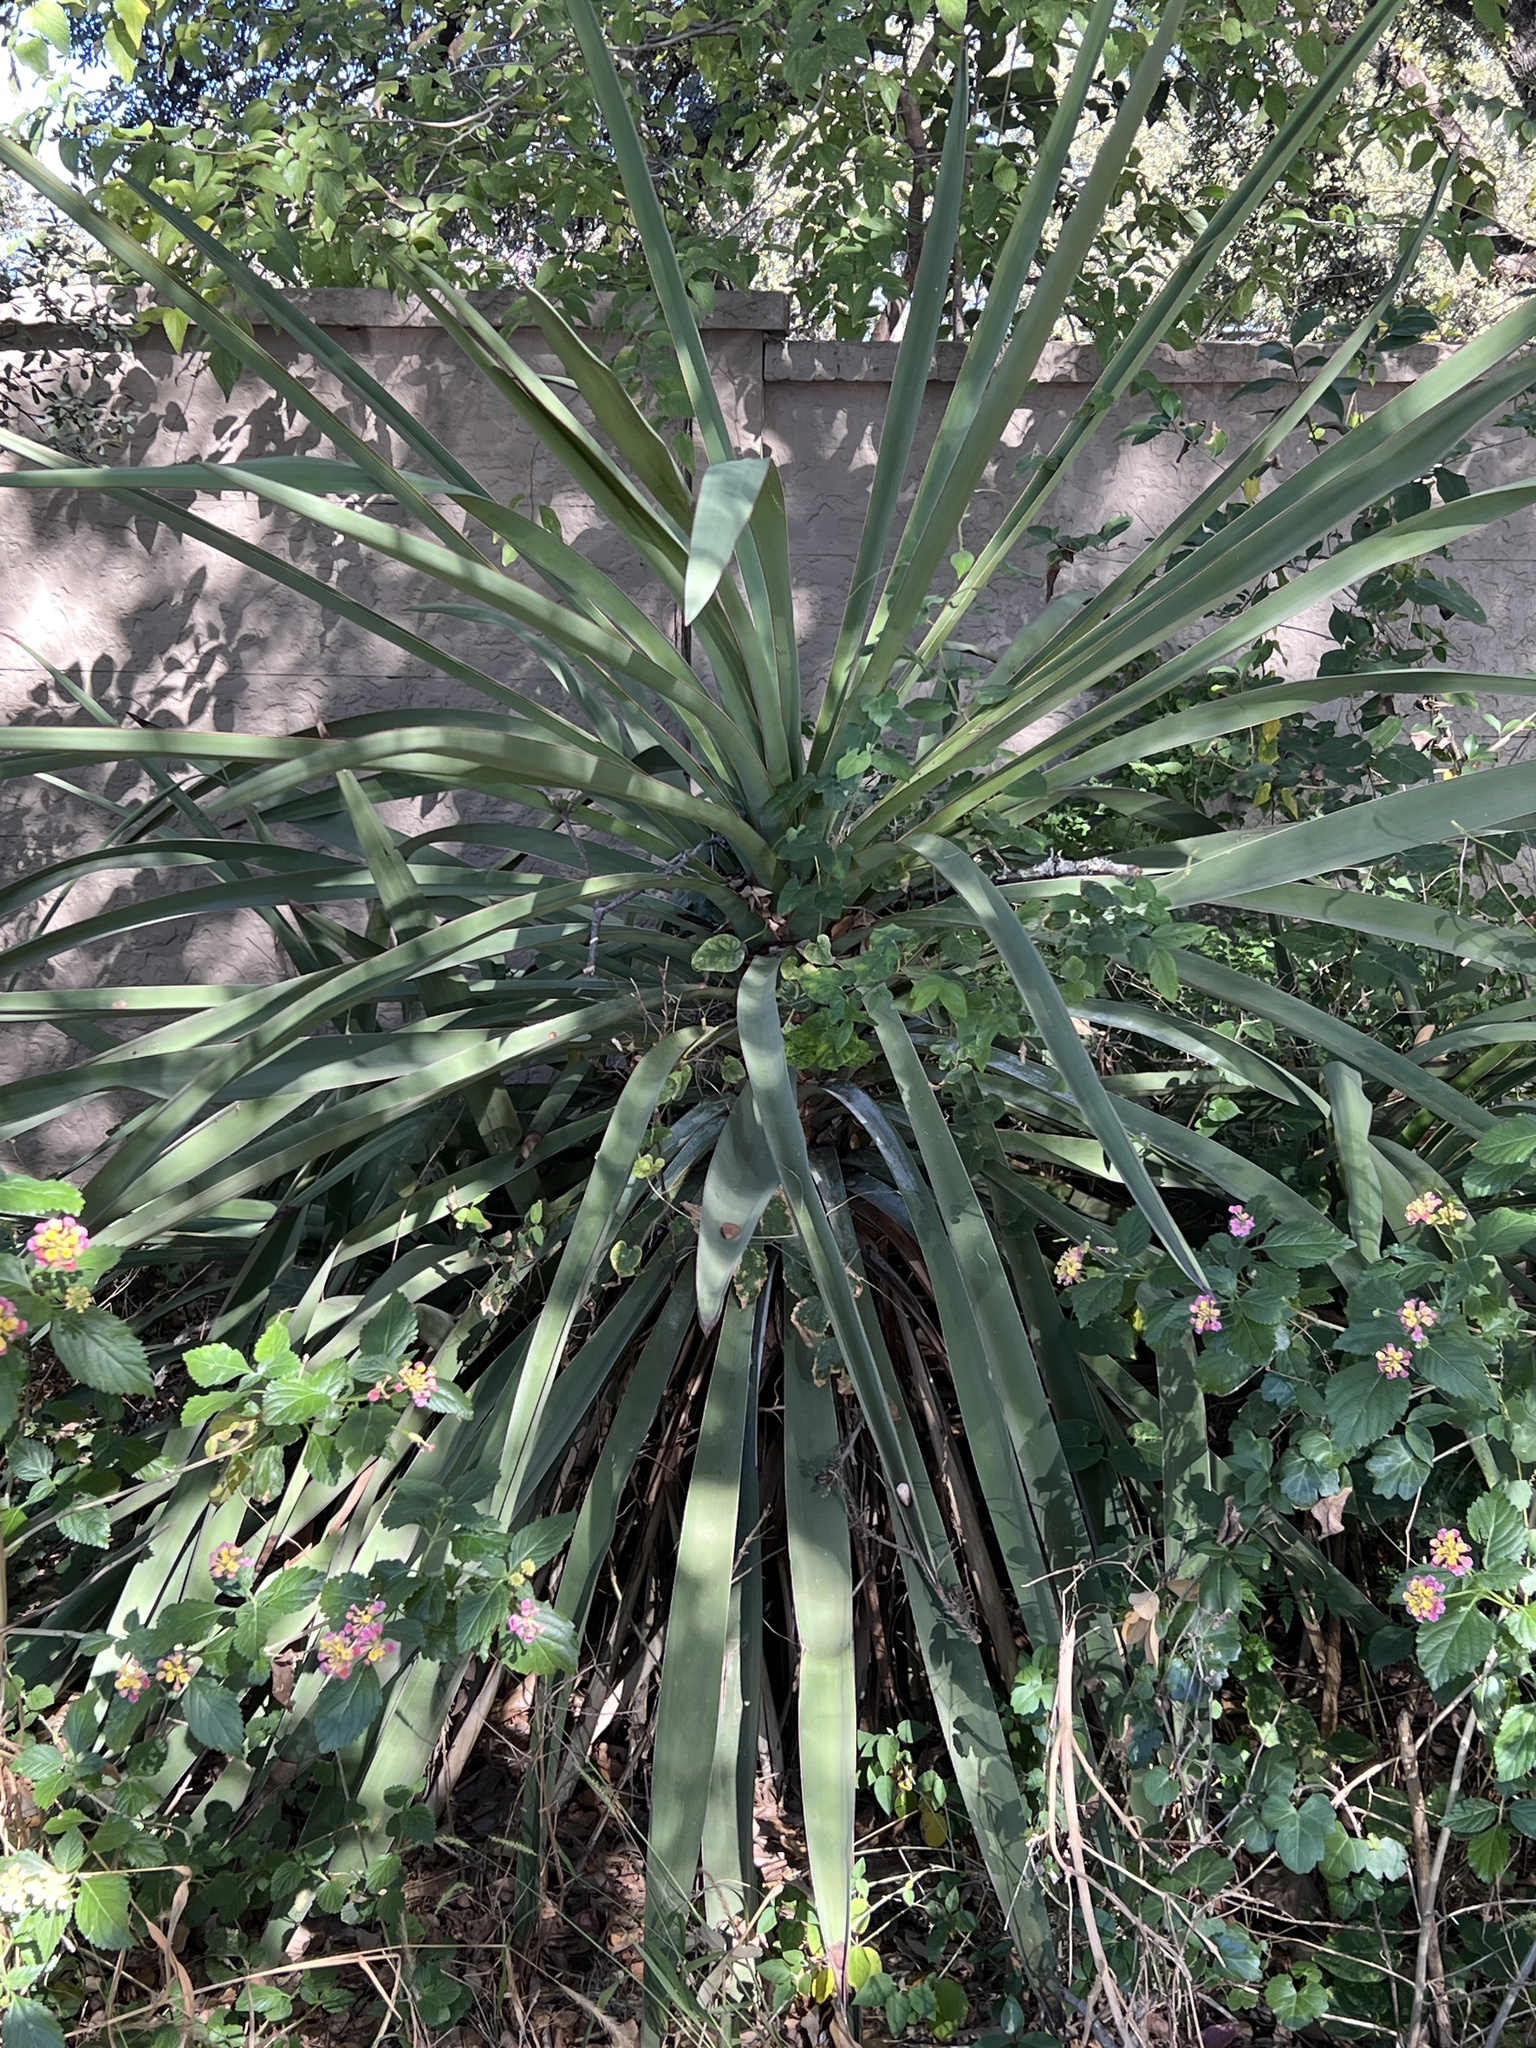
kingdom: Plantae
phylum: Tracheophyta
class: Liliopsida
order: Asparagales
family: Asparagaceae
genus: Yucca
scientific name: Yucca treculiana
